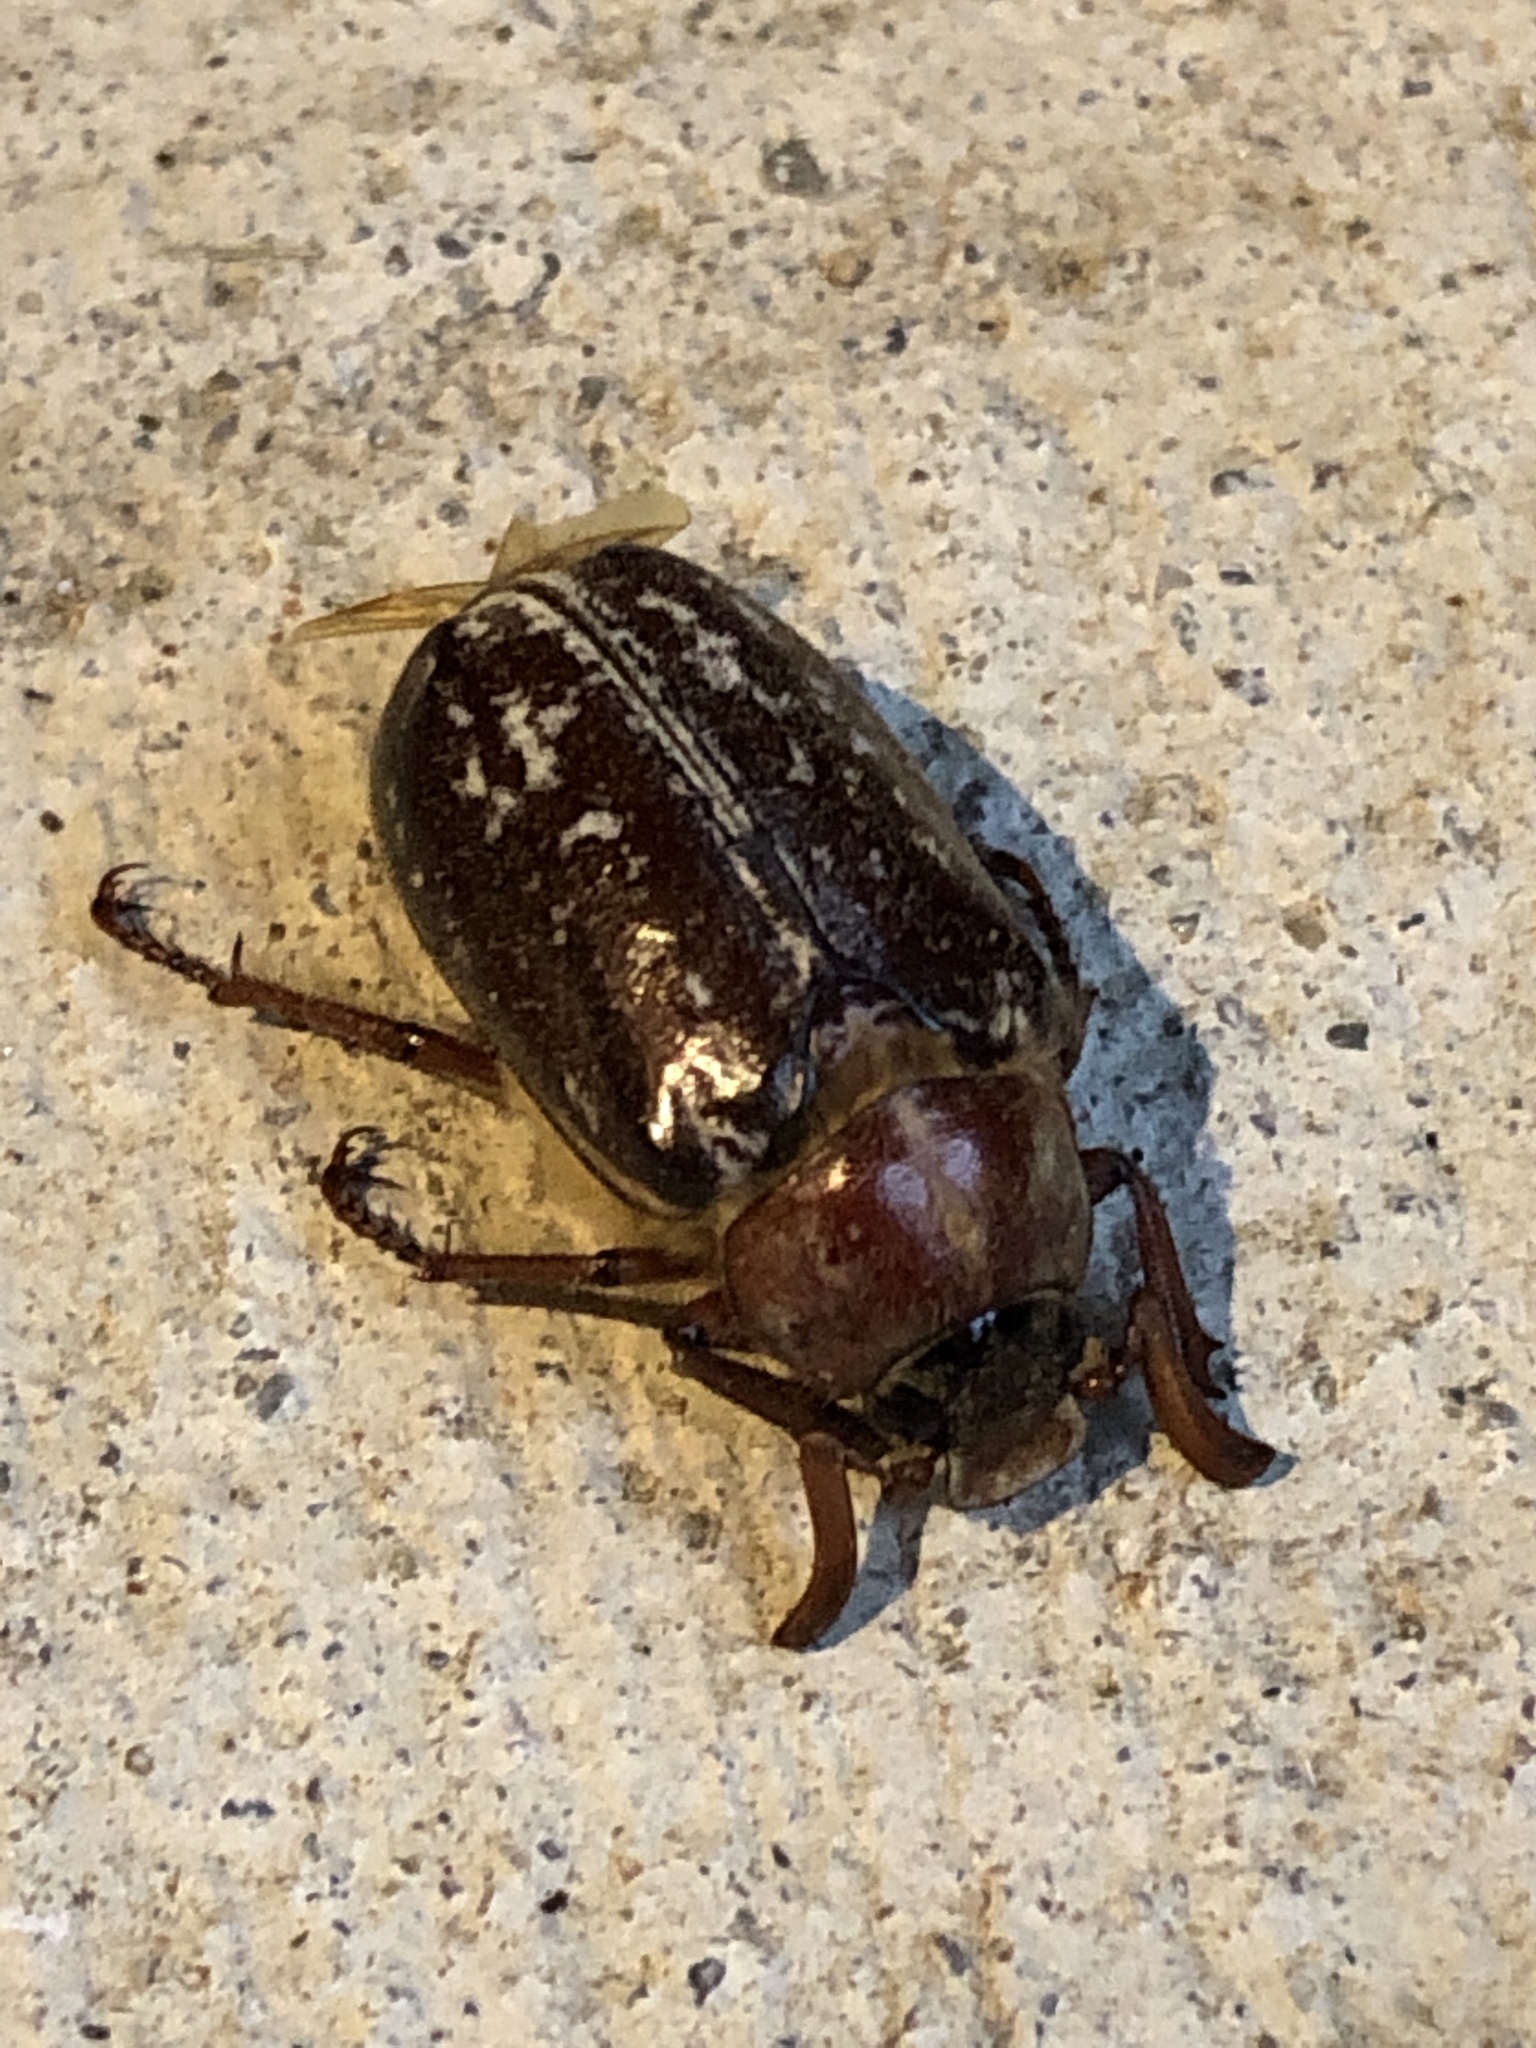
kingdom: Animalia
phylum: Arthropoda
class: Insecta
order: Coleoptera
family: Scarabaeidae
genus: Polyphylla
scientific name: Polyphylla variolosa
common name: Variegated june beetle
